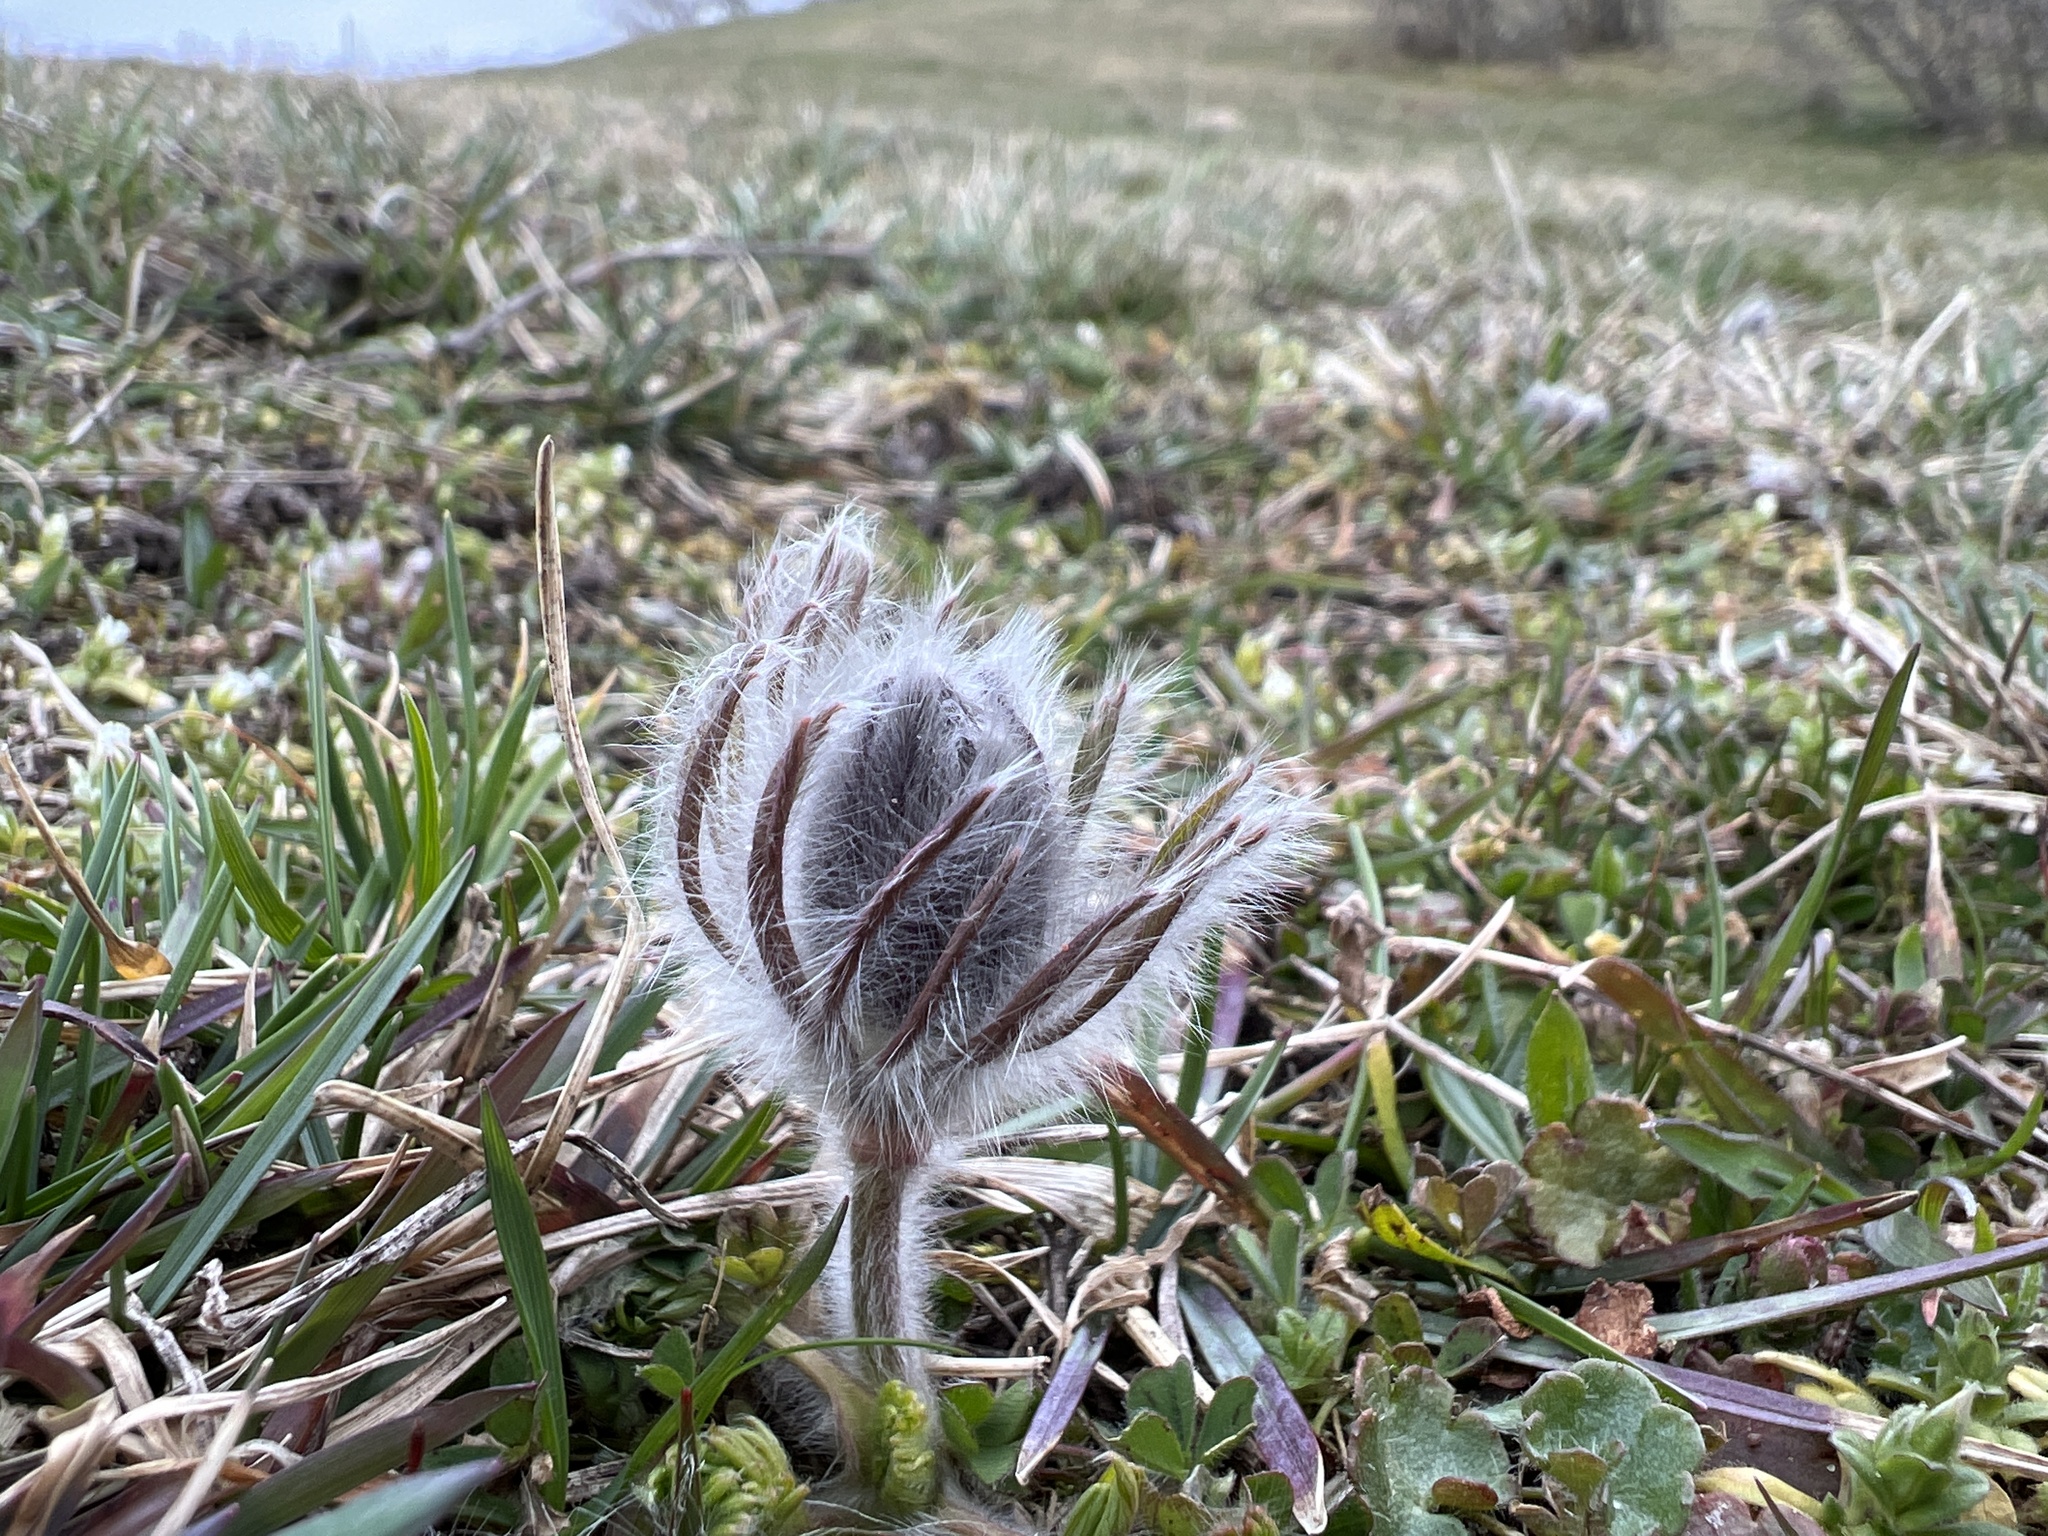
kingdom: Plantae
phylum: Tracheophyta
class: Magnoliopsida
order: Ranunculales
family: Ranunculaceae
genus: Pulsatilla
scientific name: Pulsatilla pratensis
